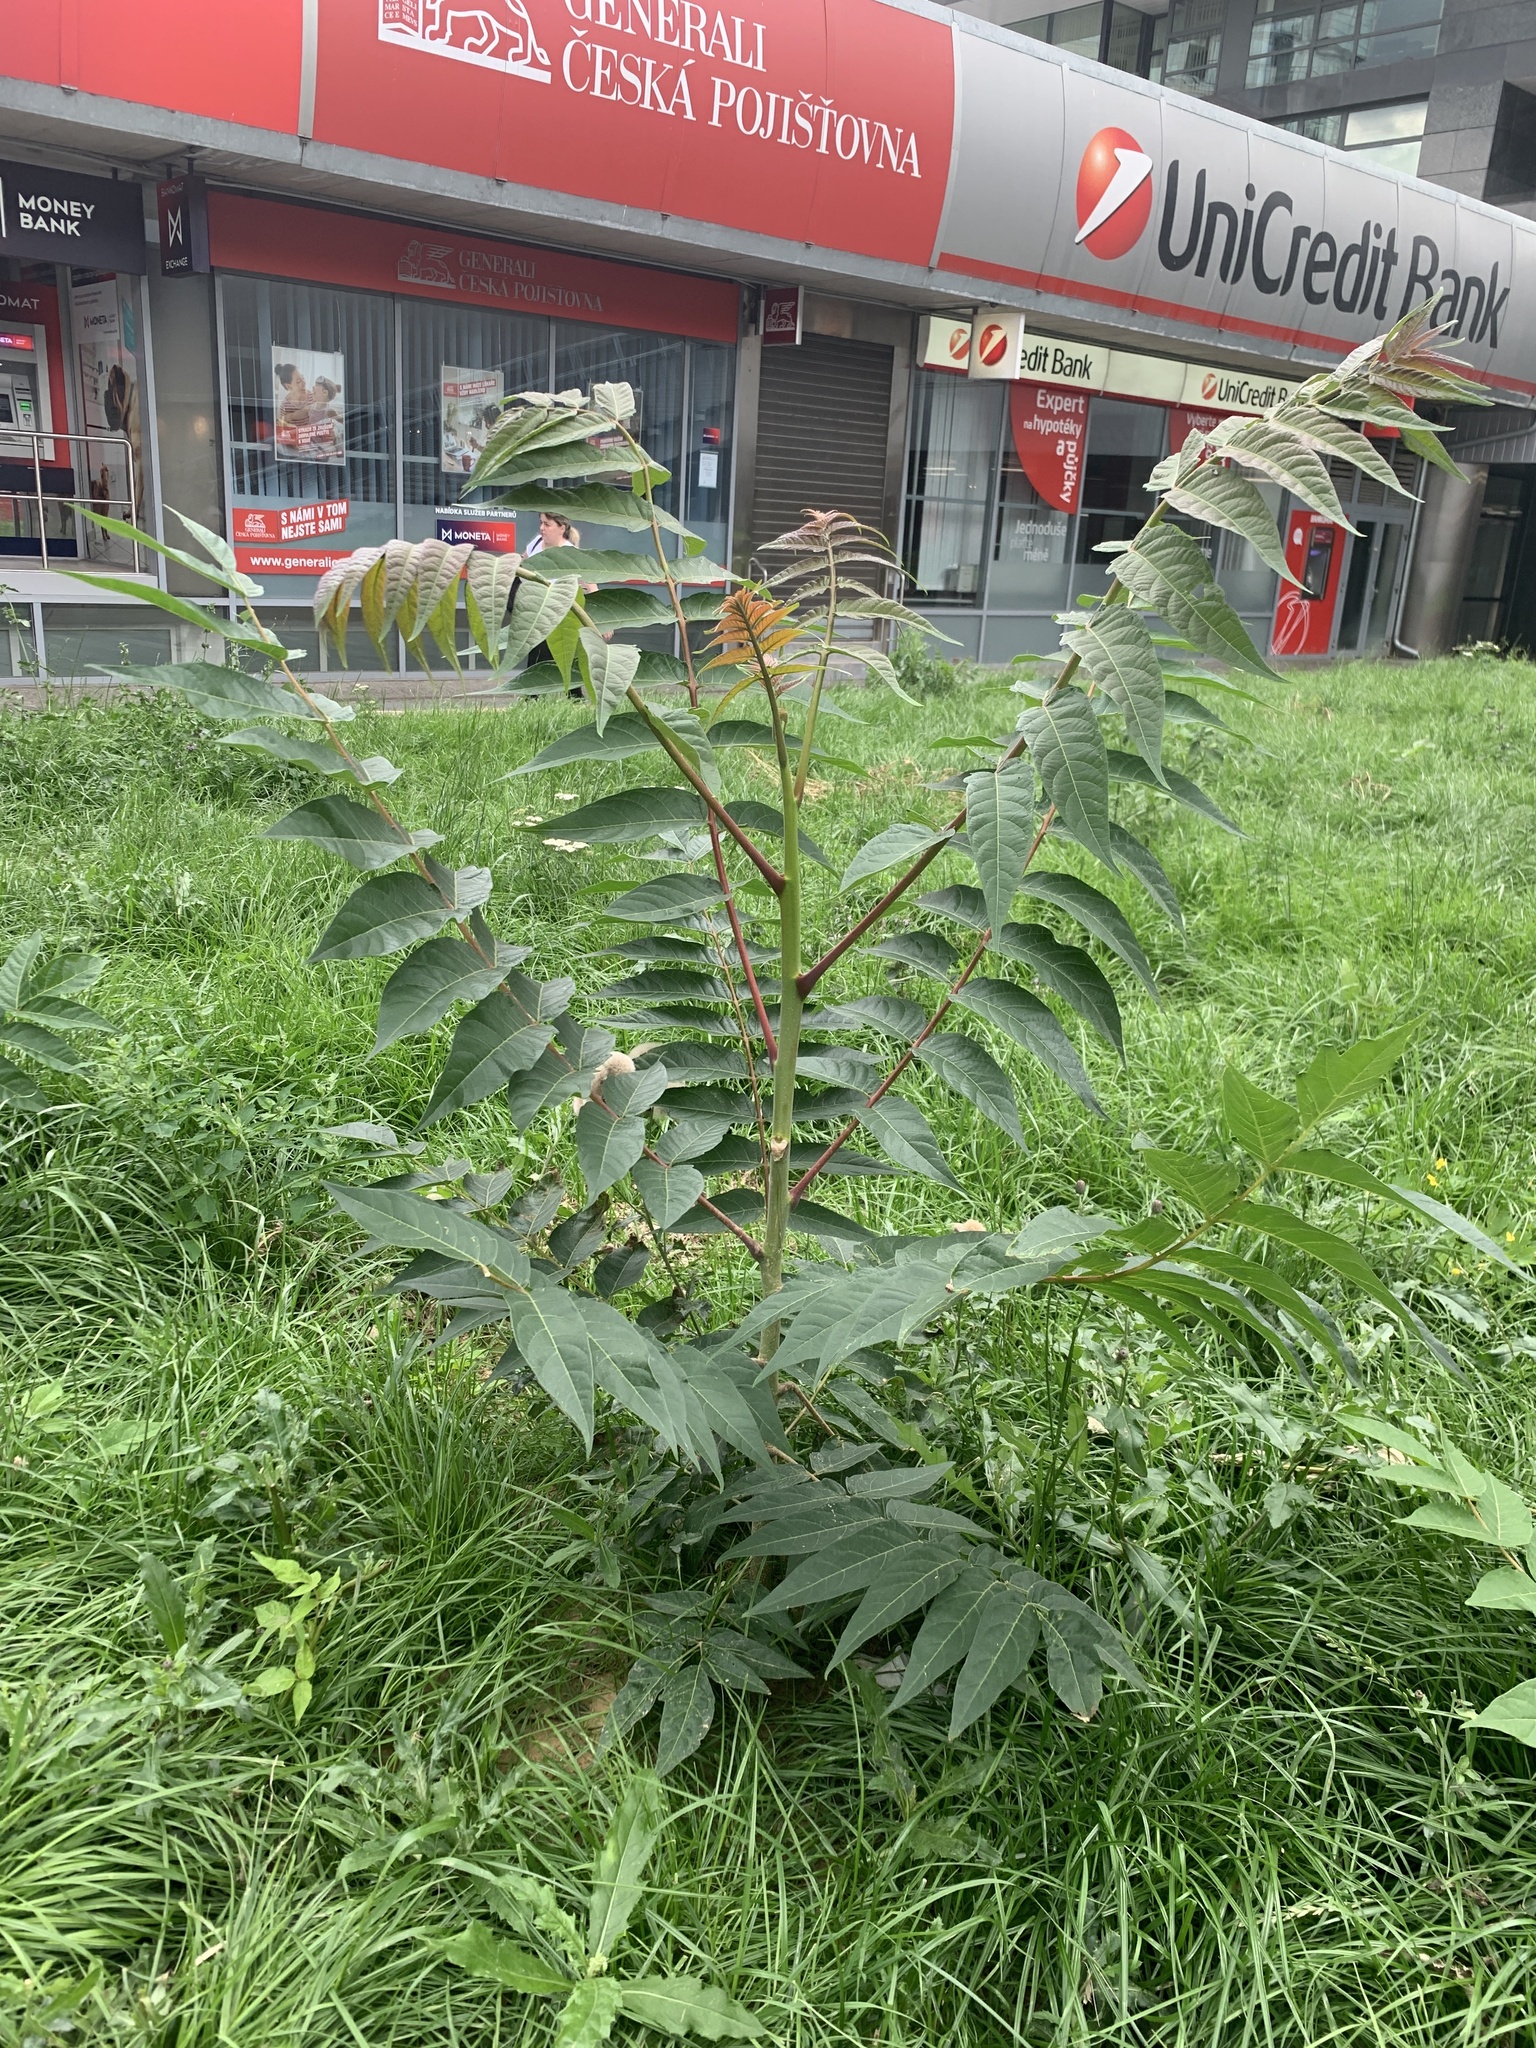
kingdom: Plantae
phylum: Tracheophyta
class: Magnoliopsida
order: Sapindales
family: Simaroubaceae
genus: Ailanthus
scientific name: Ailanthus altissima
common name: Tree-of-heaven
